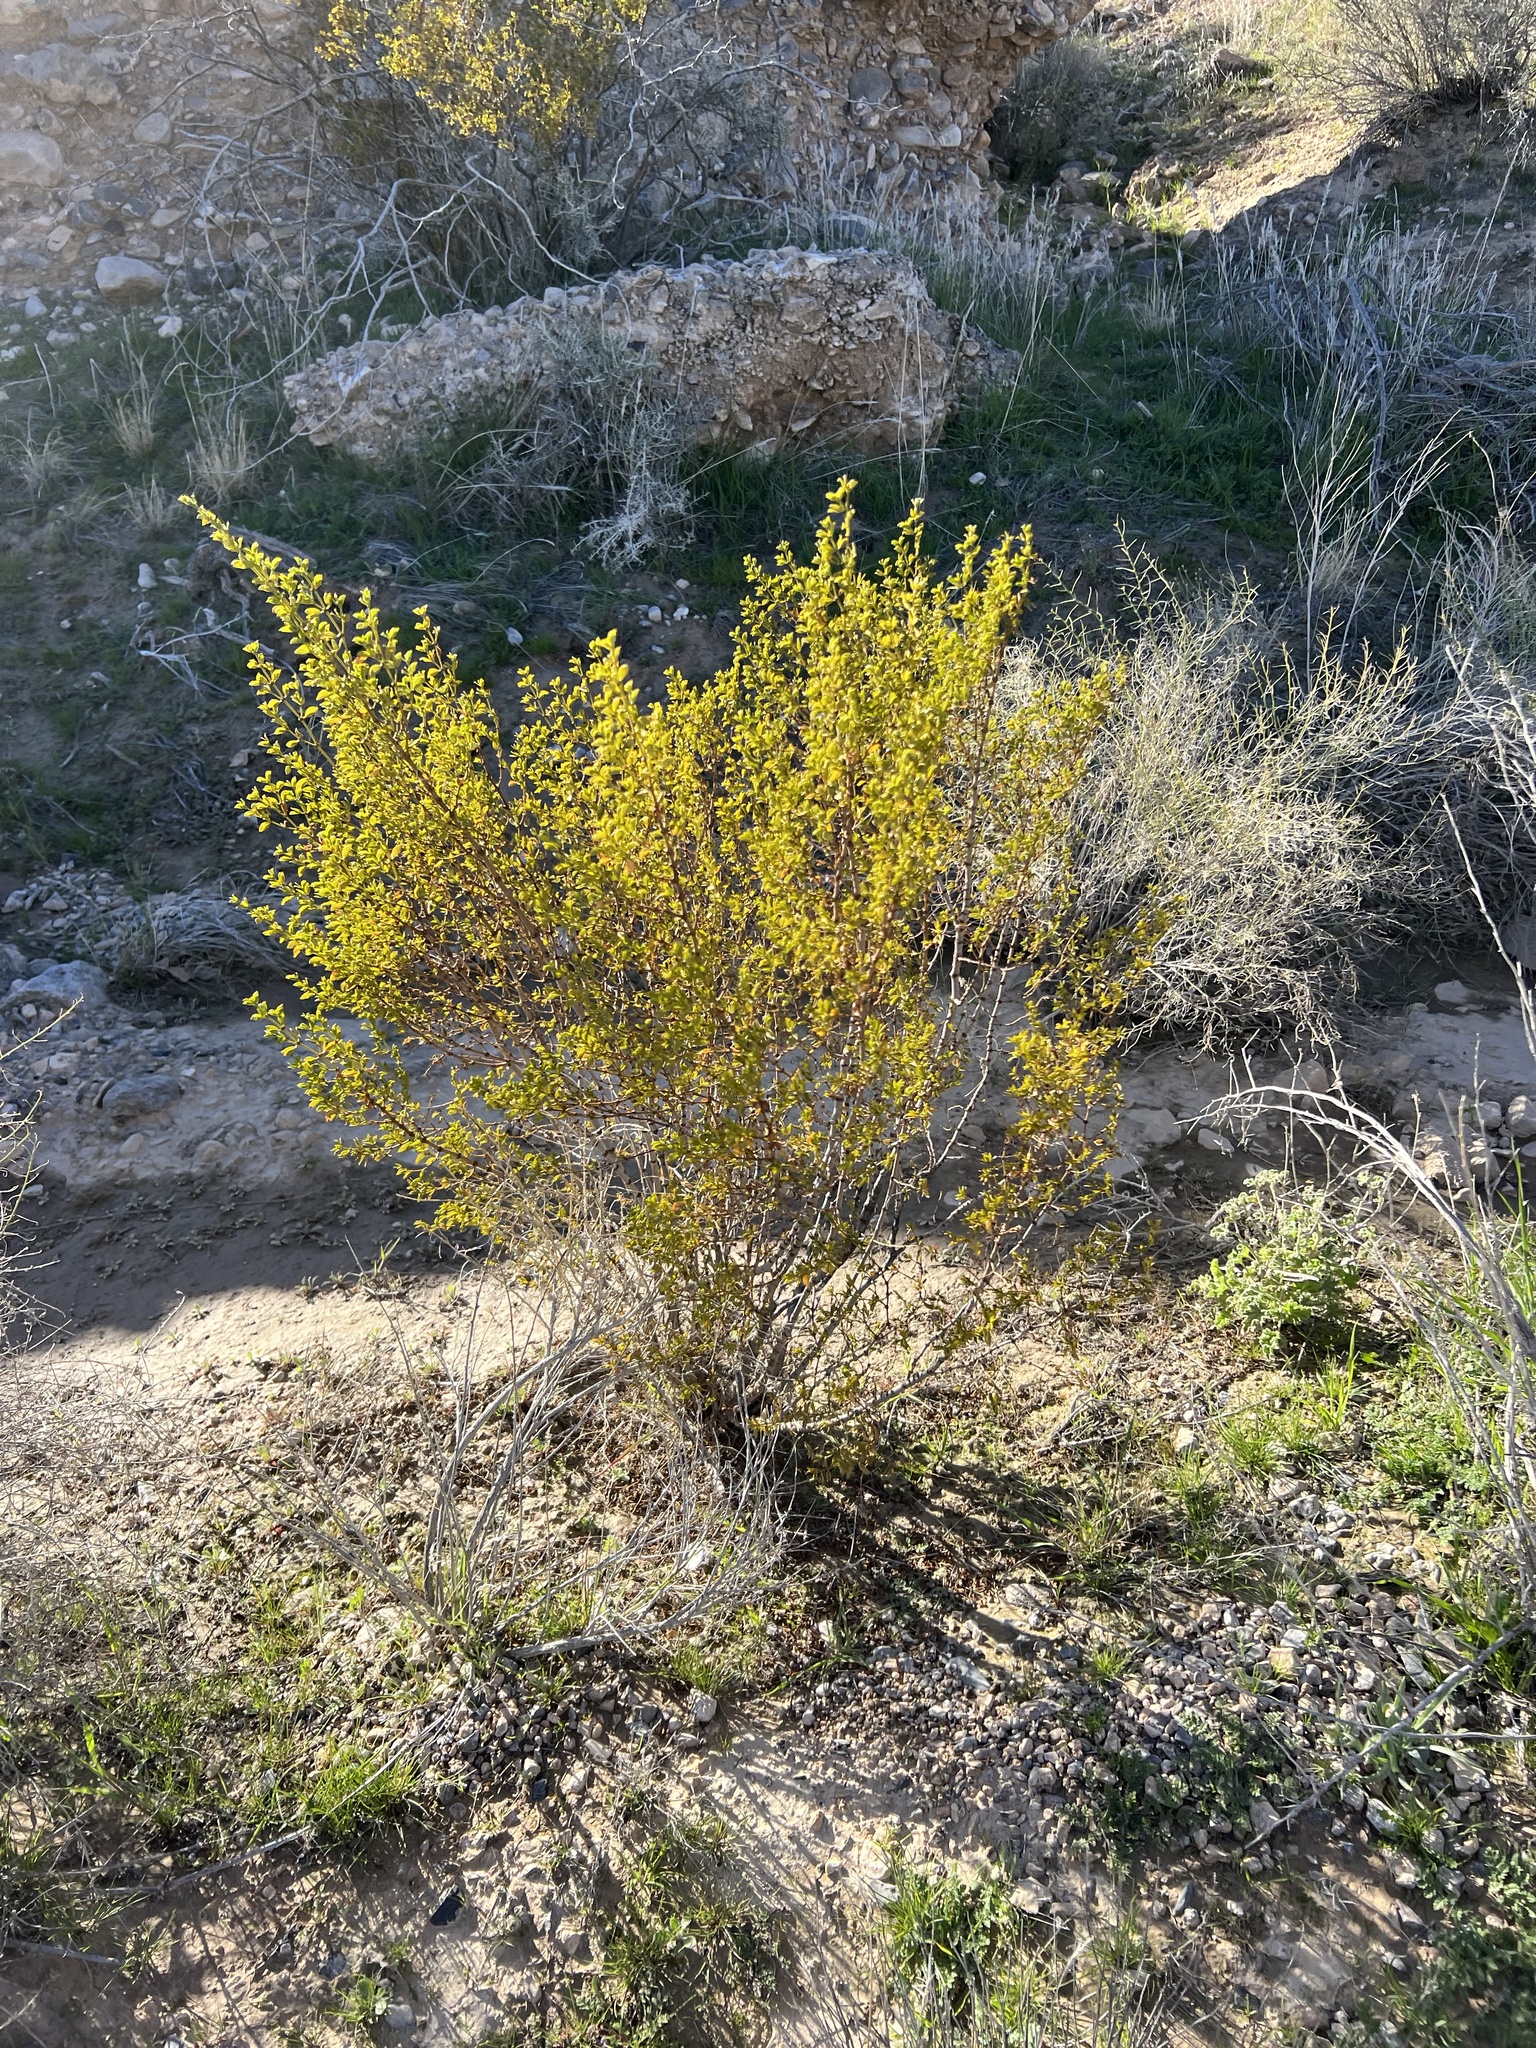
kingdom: Plantae
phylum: Tracheophyta
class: Magnoliopsida
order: Zygophyllales
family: Zygophyllaceae
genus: Larrea
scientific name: Larrea tridentata
